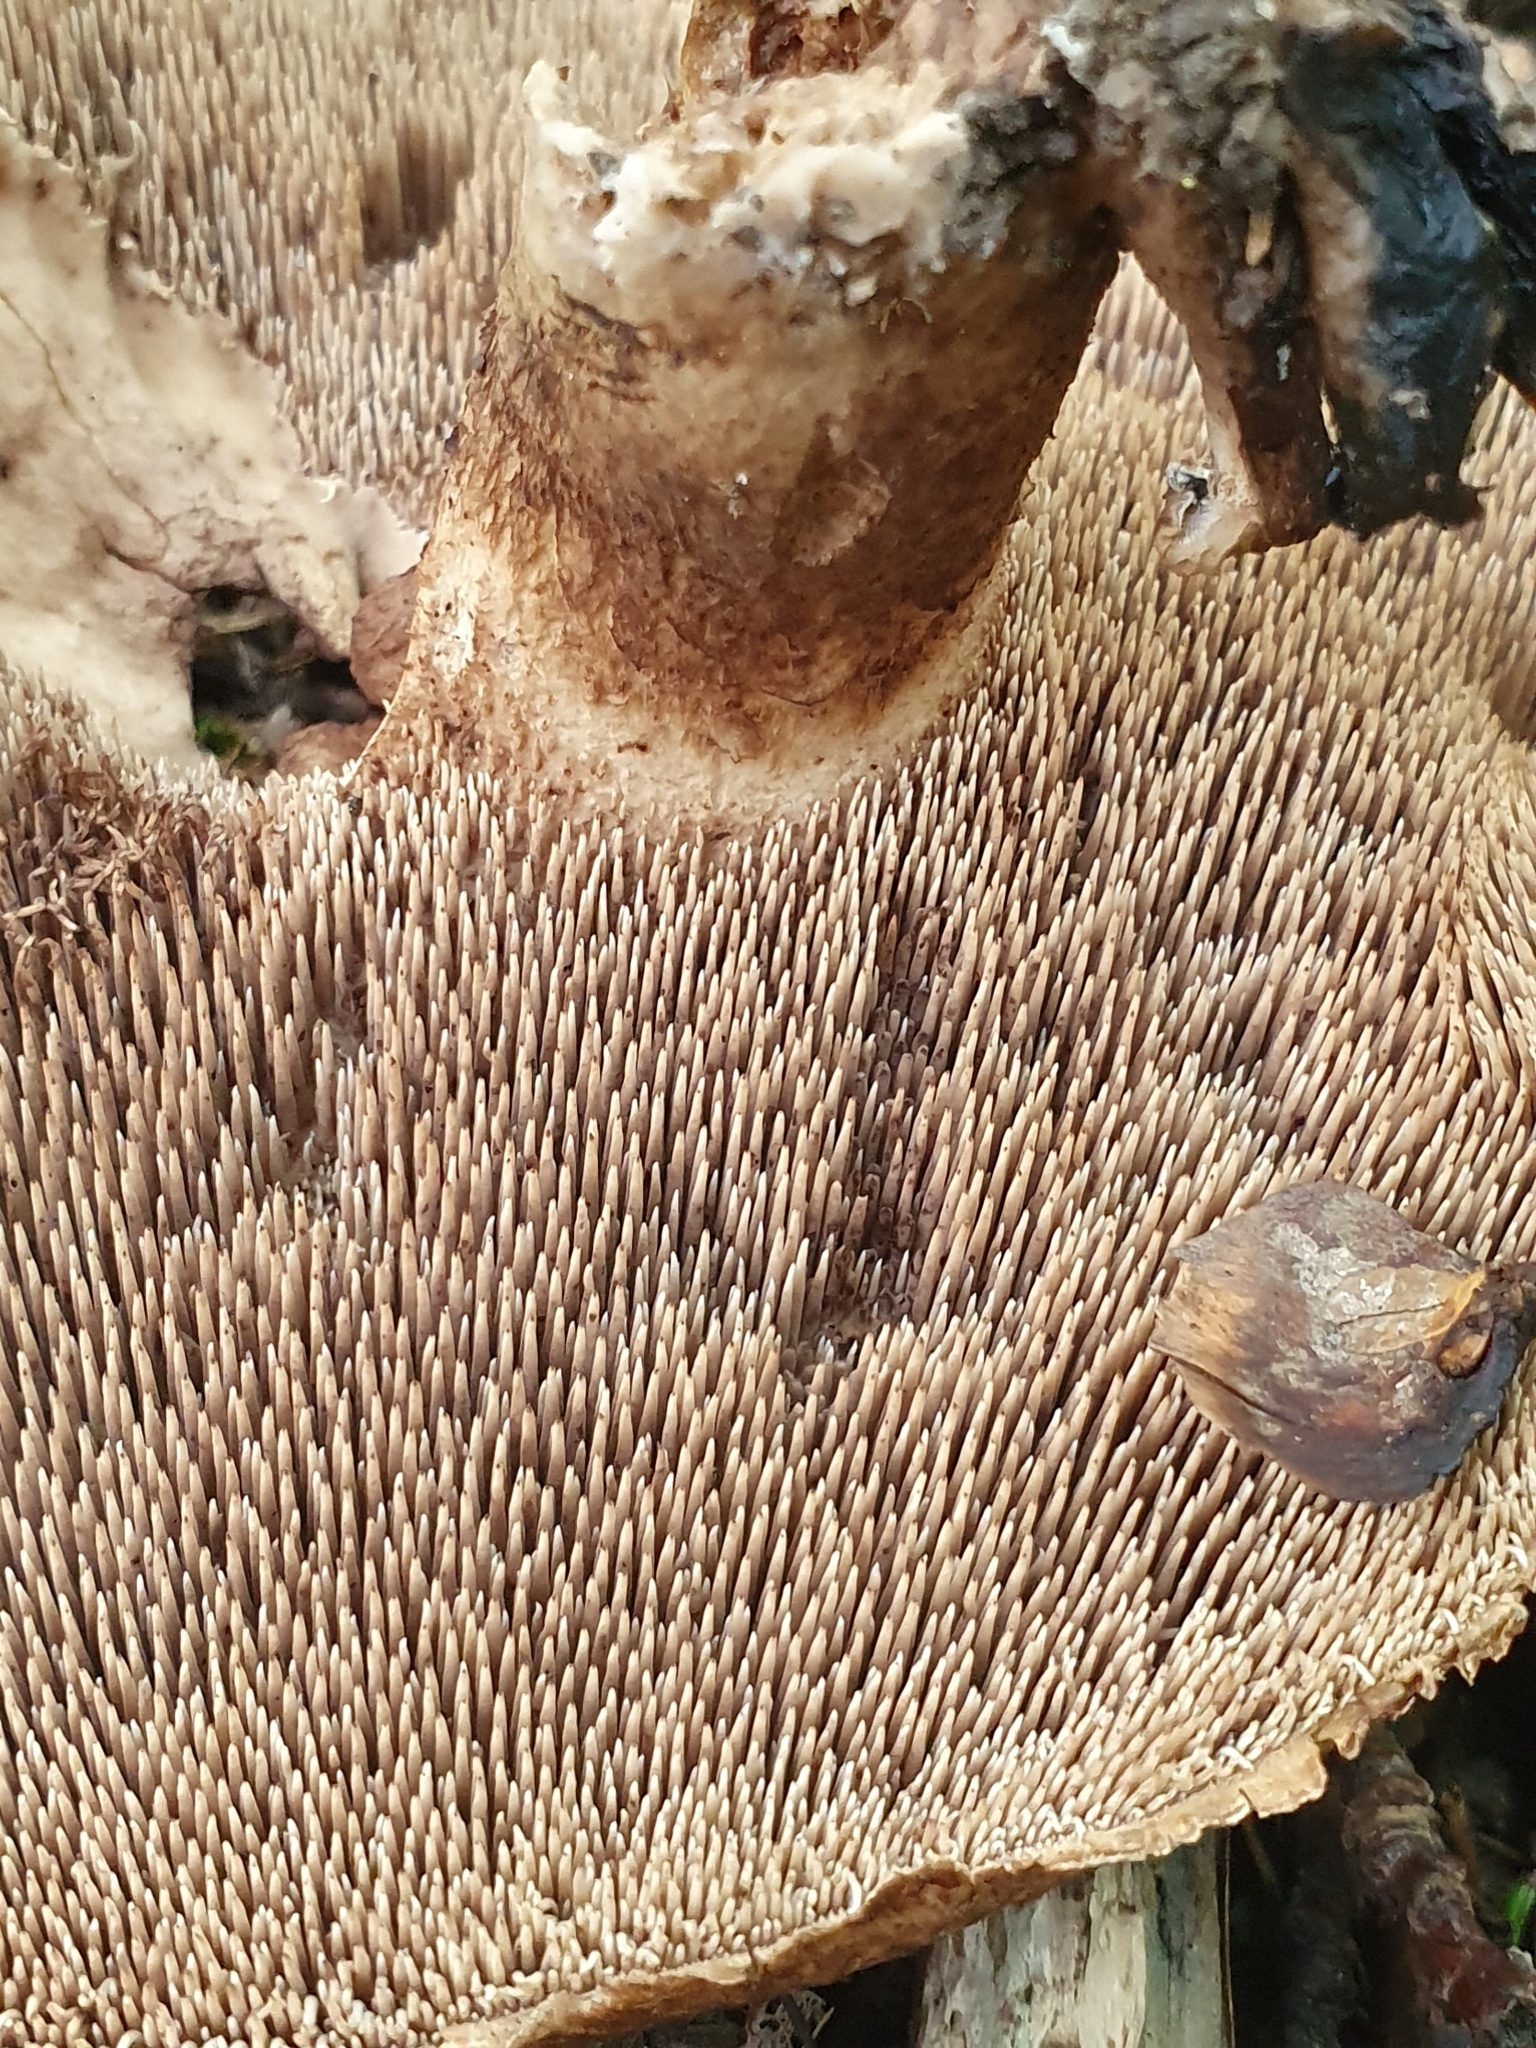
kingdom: Fungi
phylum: Basidiomycota
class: Agaricomycetes
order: Thelephorales
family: Bankeraceae
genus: Sarcodon
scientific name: Sarcodon imbricatus
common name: Shingled hedgehog
